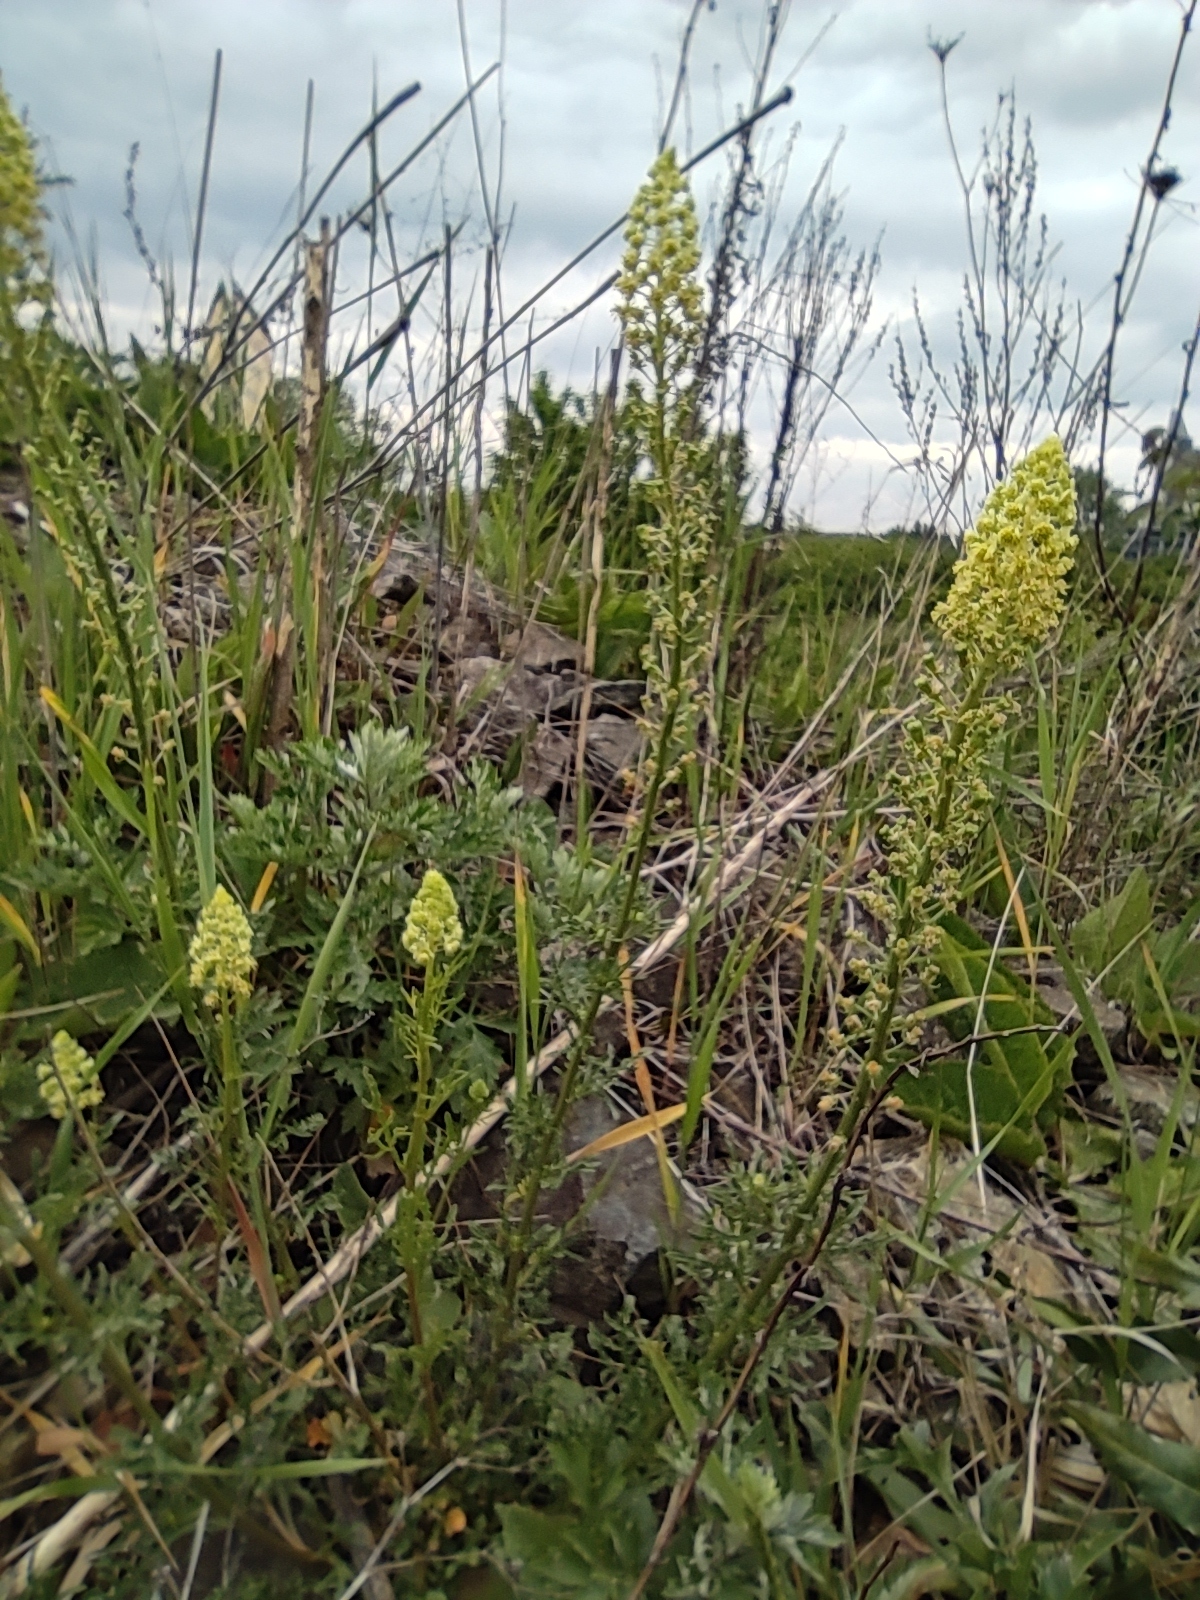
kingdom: Plantae
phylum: Tracheophyta
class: Magnoliopsida
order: Brassicales
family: Resedaceae
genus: Reseda
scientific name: Reseda lutea
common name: Wild mignonette
